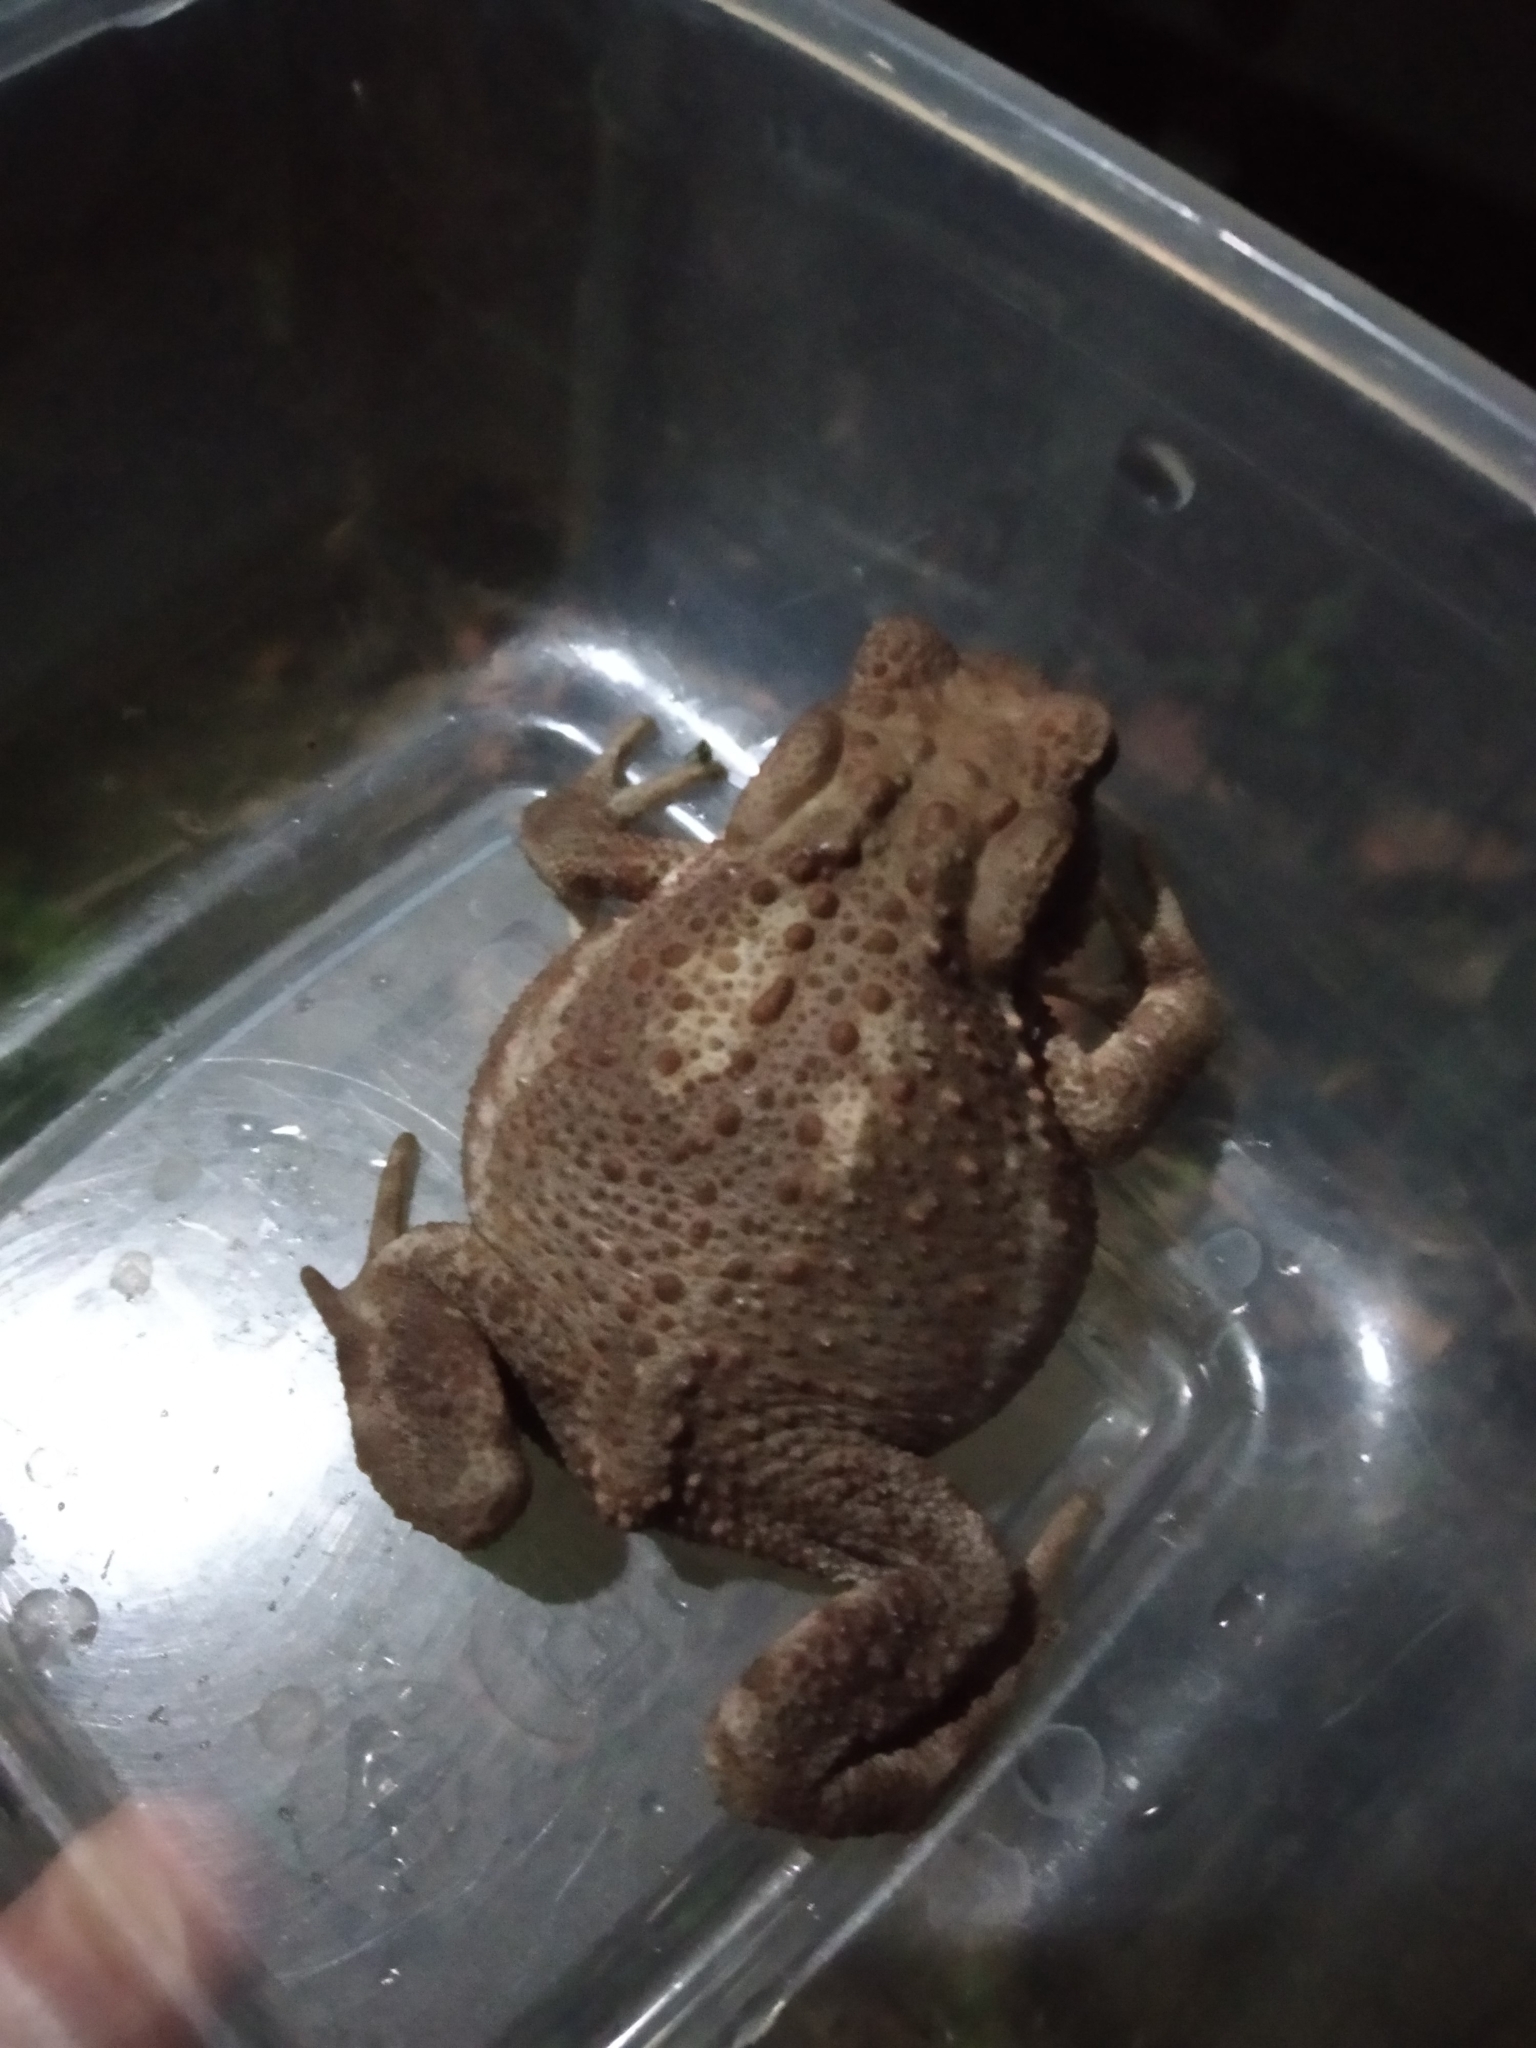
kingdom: Animalia
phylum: Chordata
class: Amphibia
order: Anura
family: Bufonidae
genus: Bufo
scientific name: Bufo bufo
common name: Common toad
